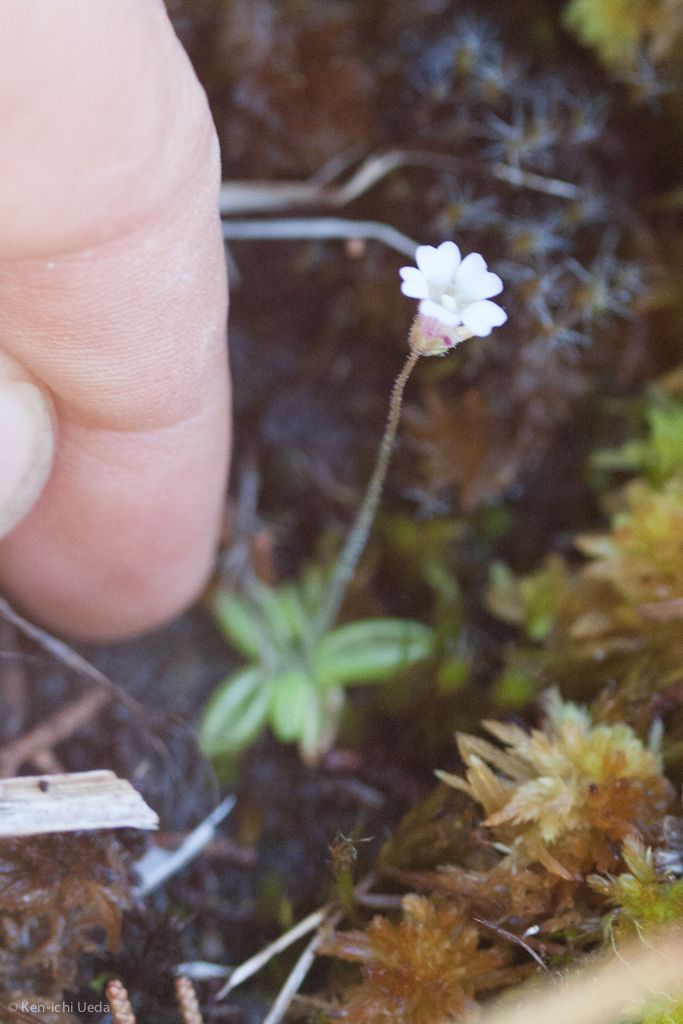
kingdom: Plantae
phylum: Tracheophyta
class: Magnoliopsida
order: Lamiales
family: Lentibulariaceae
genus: Pinguicula
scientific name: Pinguicula lusitanica
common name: Pale butterwort
